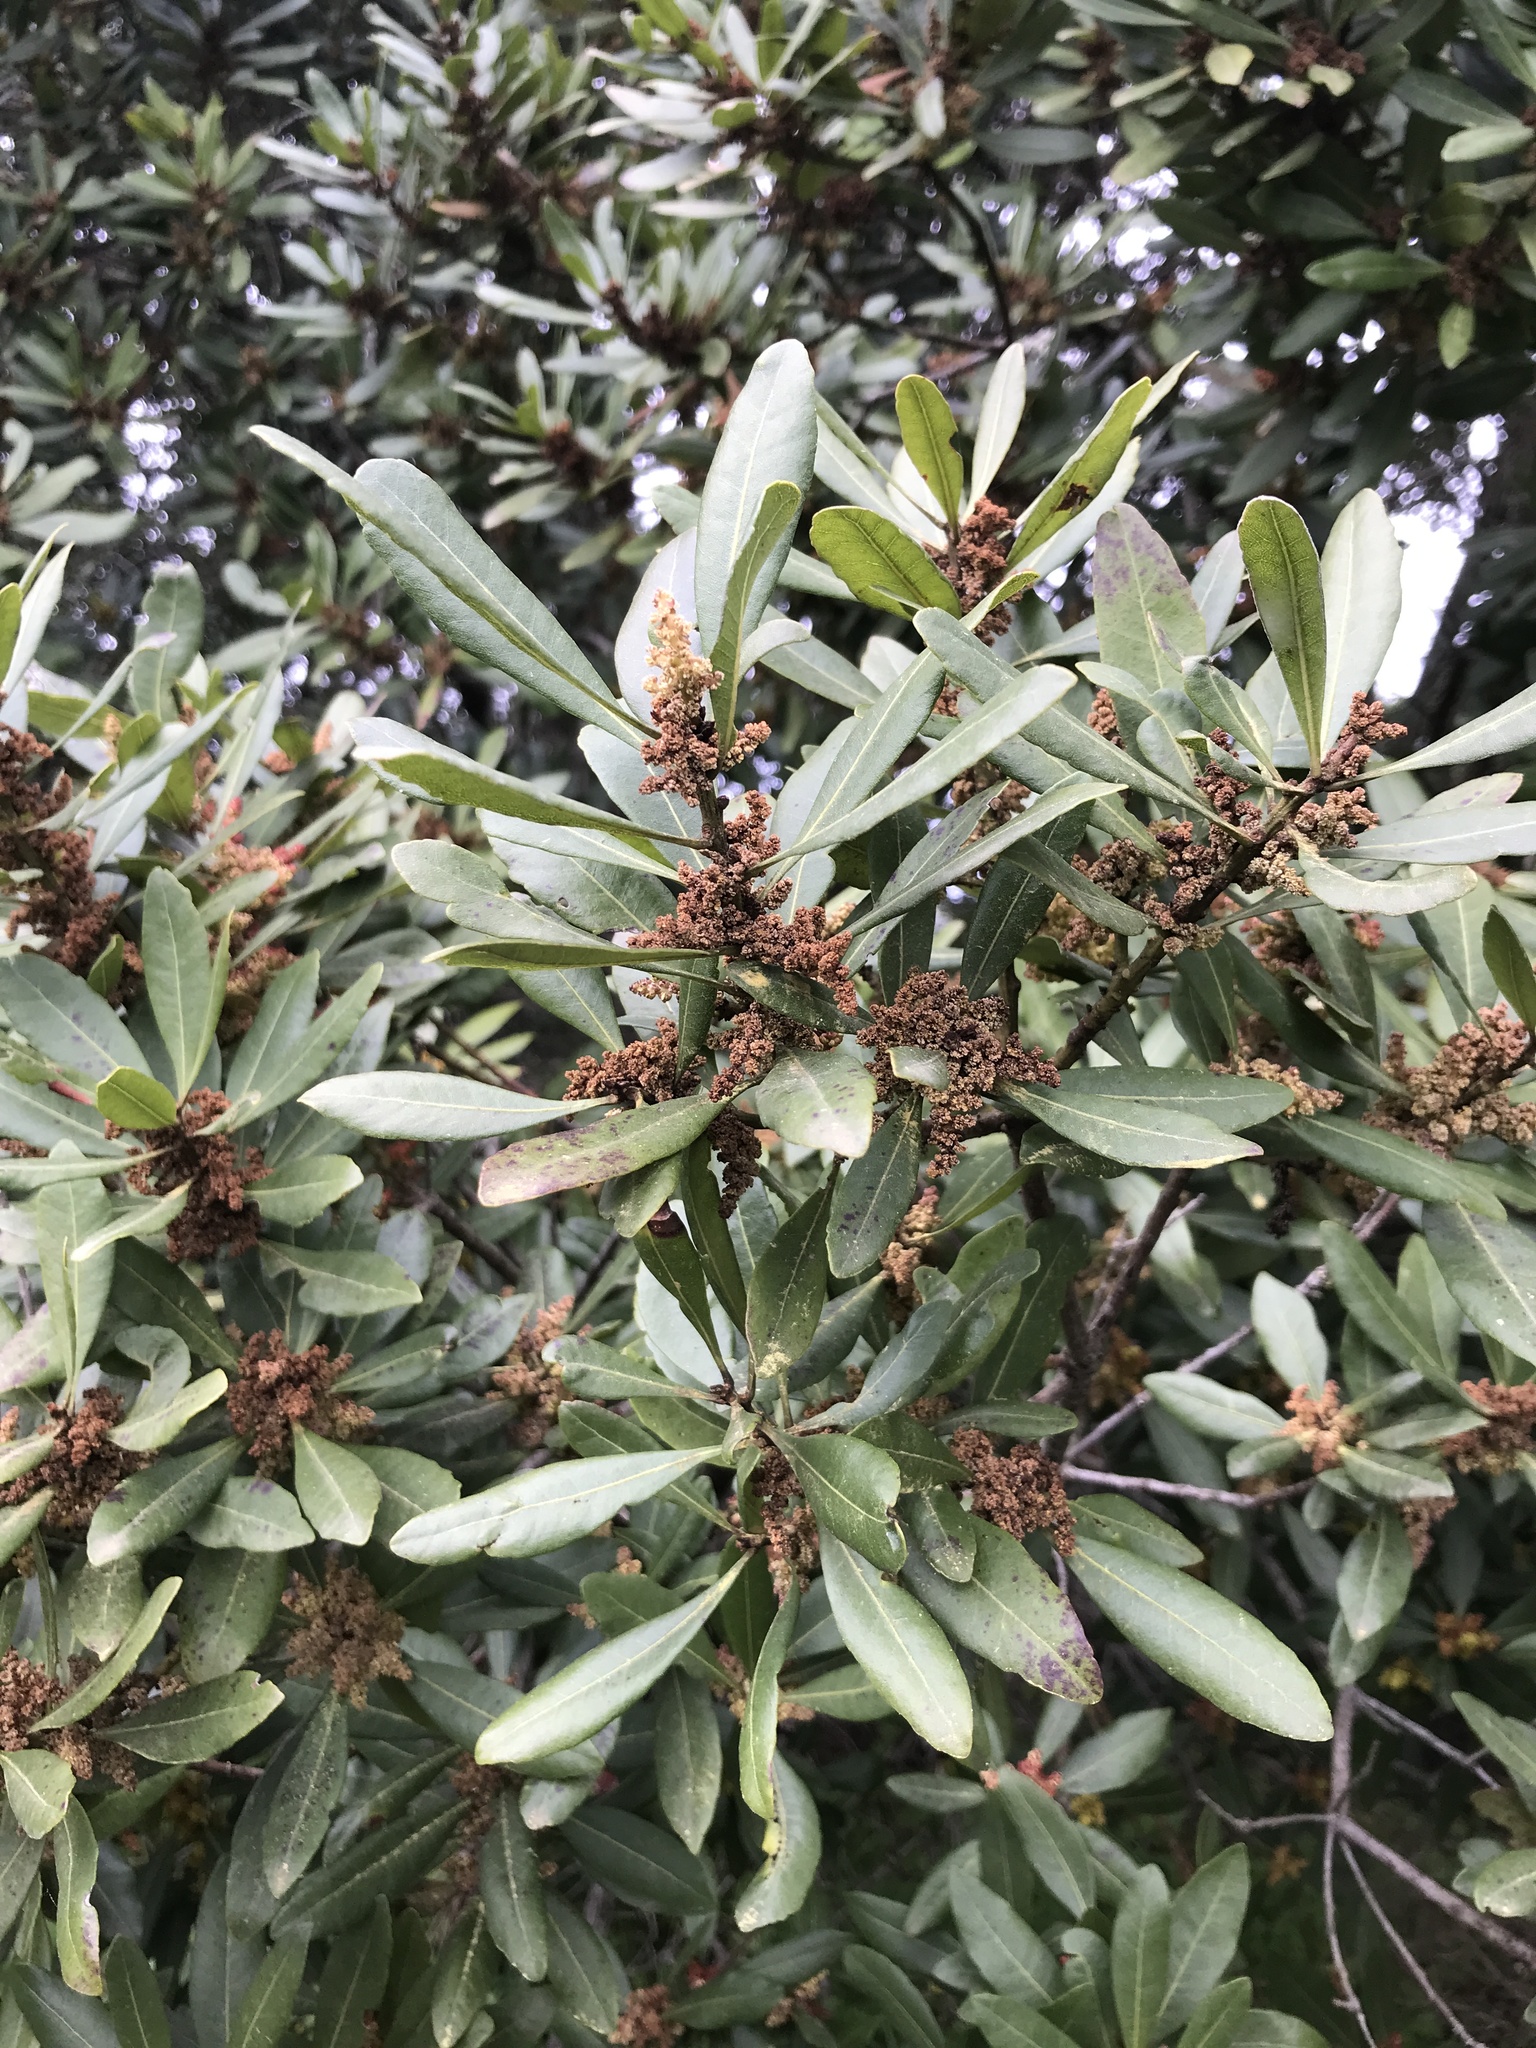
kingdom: Plantae
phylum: Tracheophyta
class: Magnoliopsida
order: Fagales
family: Myricaceae
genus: Morella
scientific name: Morella faya
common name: Firetree
